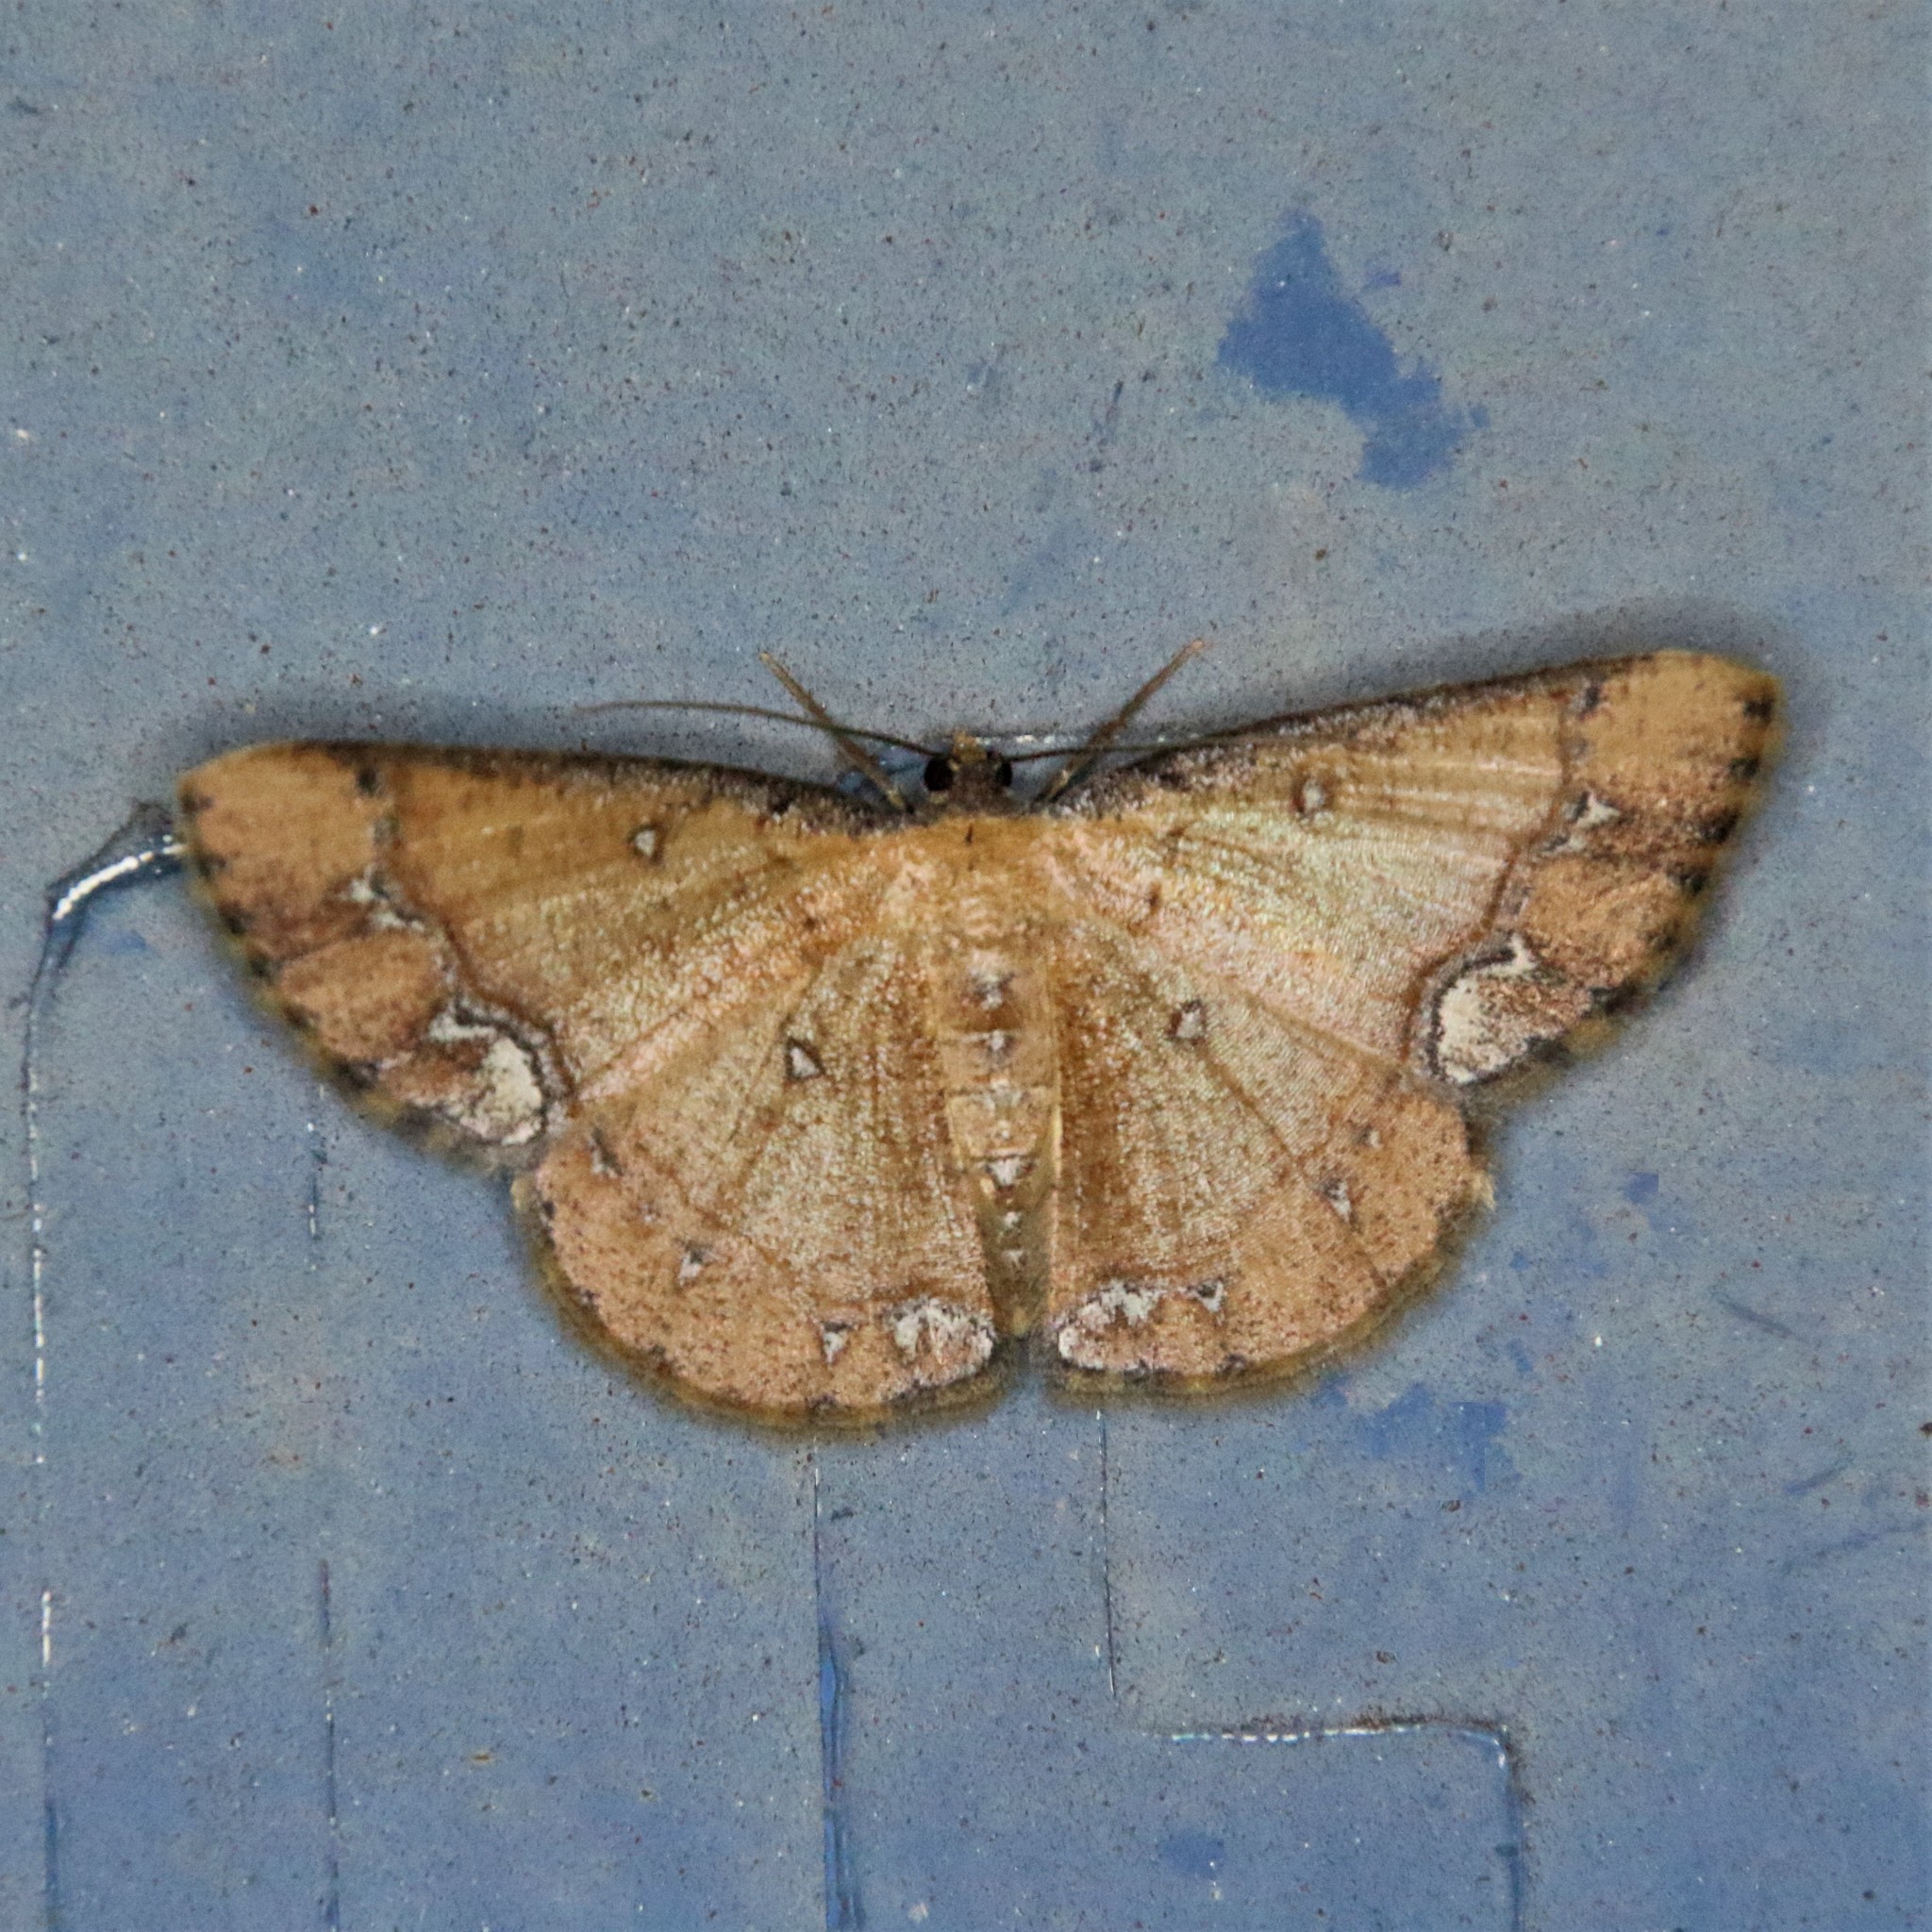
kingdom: Animalia
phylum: Arthropoda
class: Insecta
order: Lepidoptera
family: Geometridae
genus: Sundagrapha
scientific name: Sundagrapha tenebrosa
